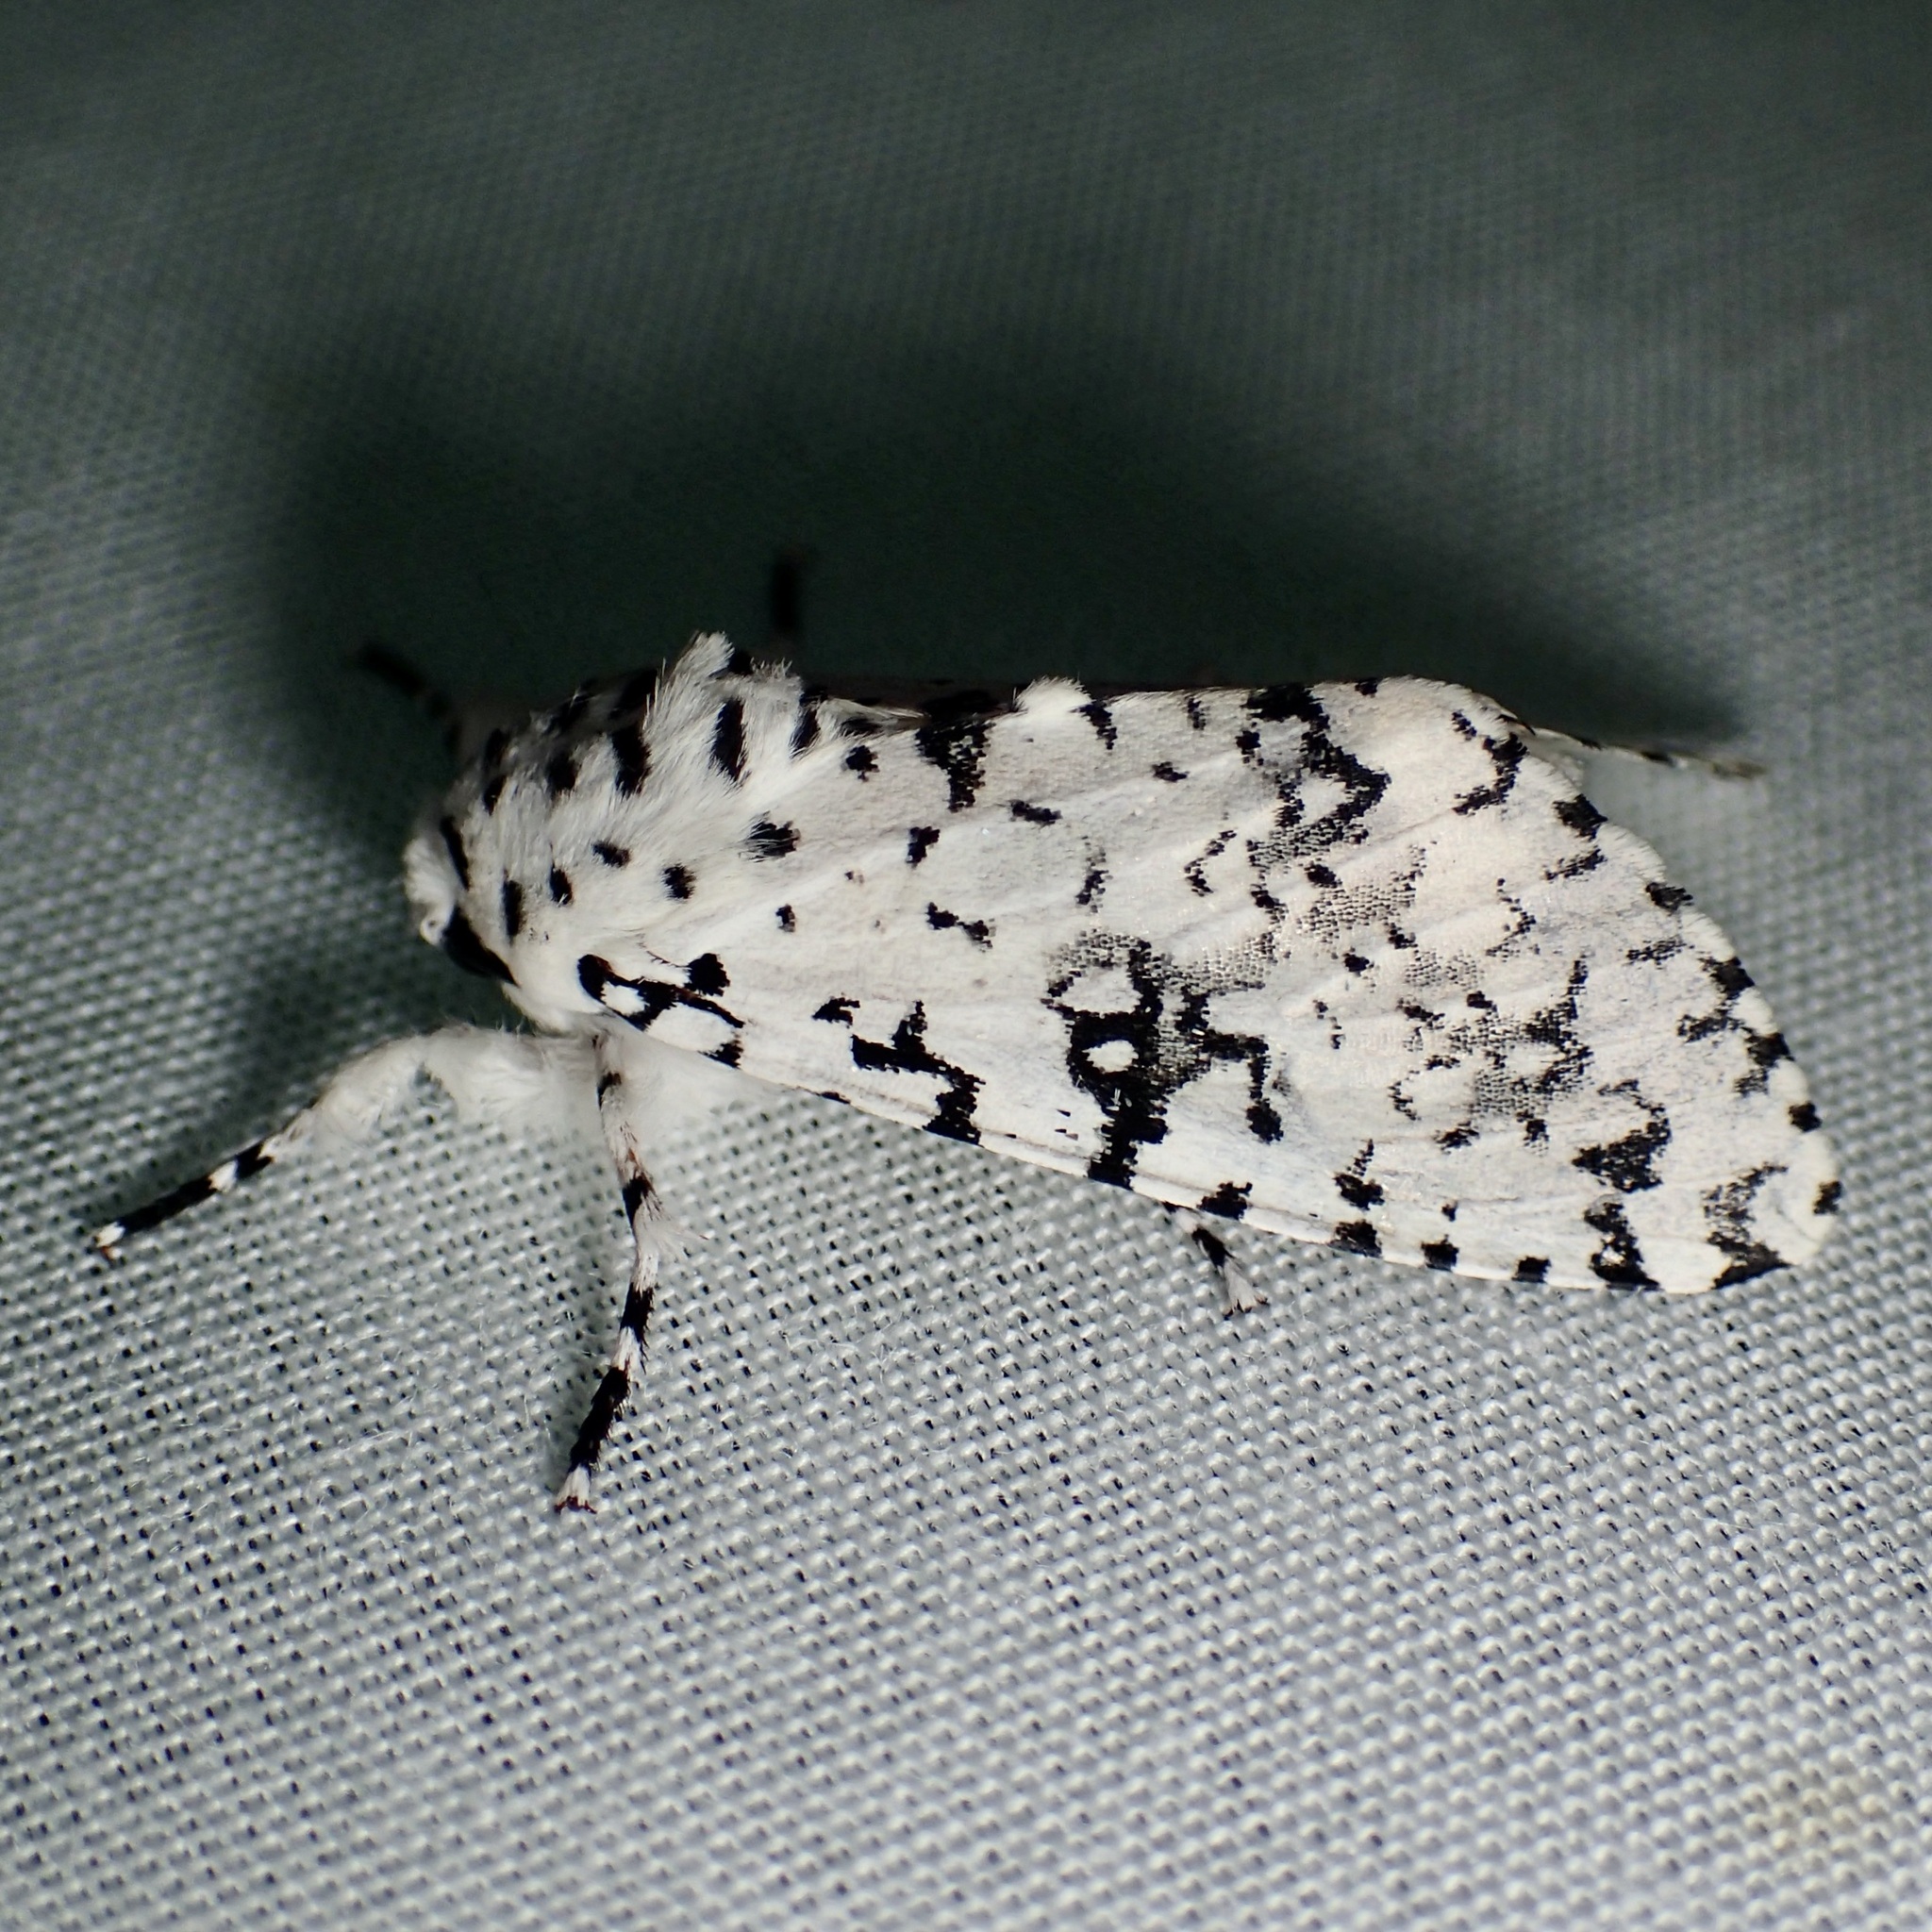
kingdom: Animalia
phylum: Arthropoda
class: Insecta
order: Lepidoptera
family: Noctuidae
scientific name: Noctuidae
